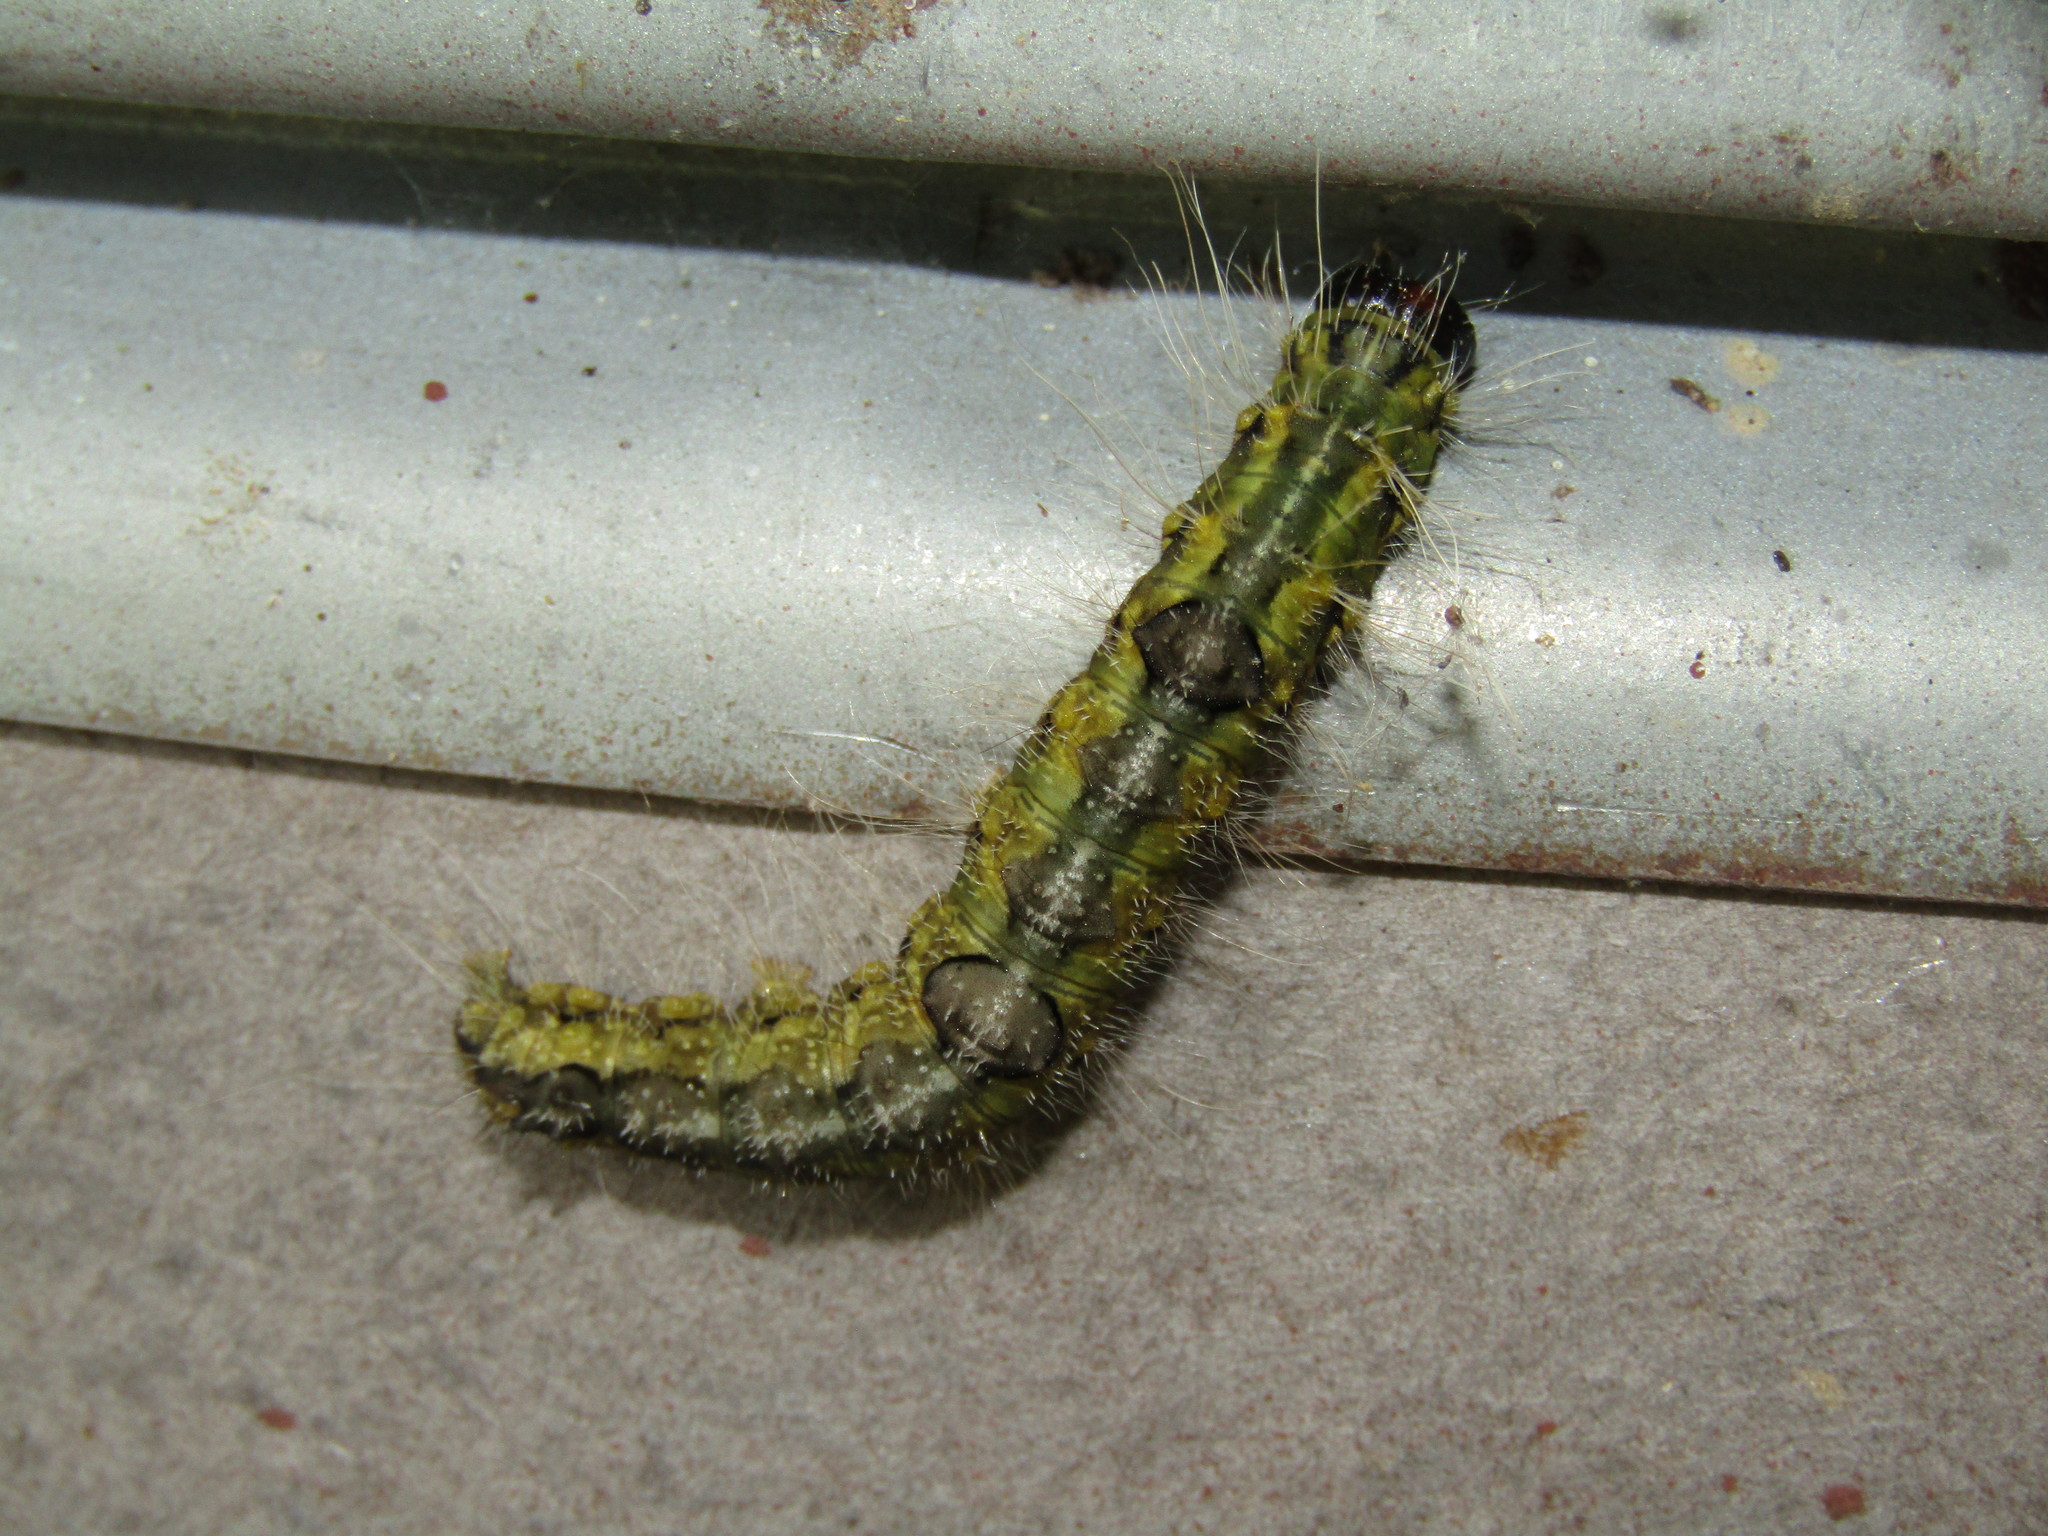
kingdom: Animalia
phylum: Arthropoda
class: Insecta
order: Lepidoptera
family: Noctuidae
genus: Acronicta
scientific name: Acronicta morula
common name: Ochre dagger
